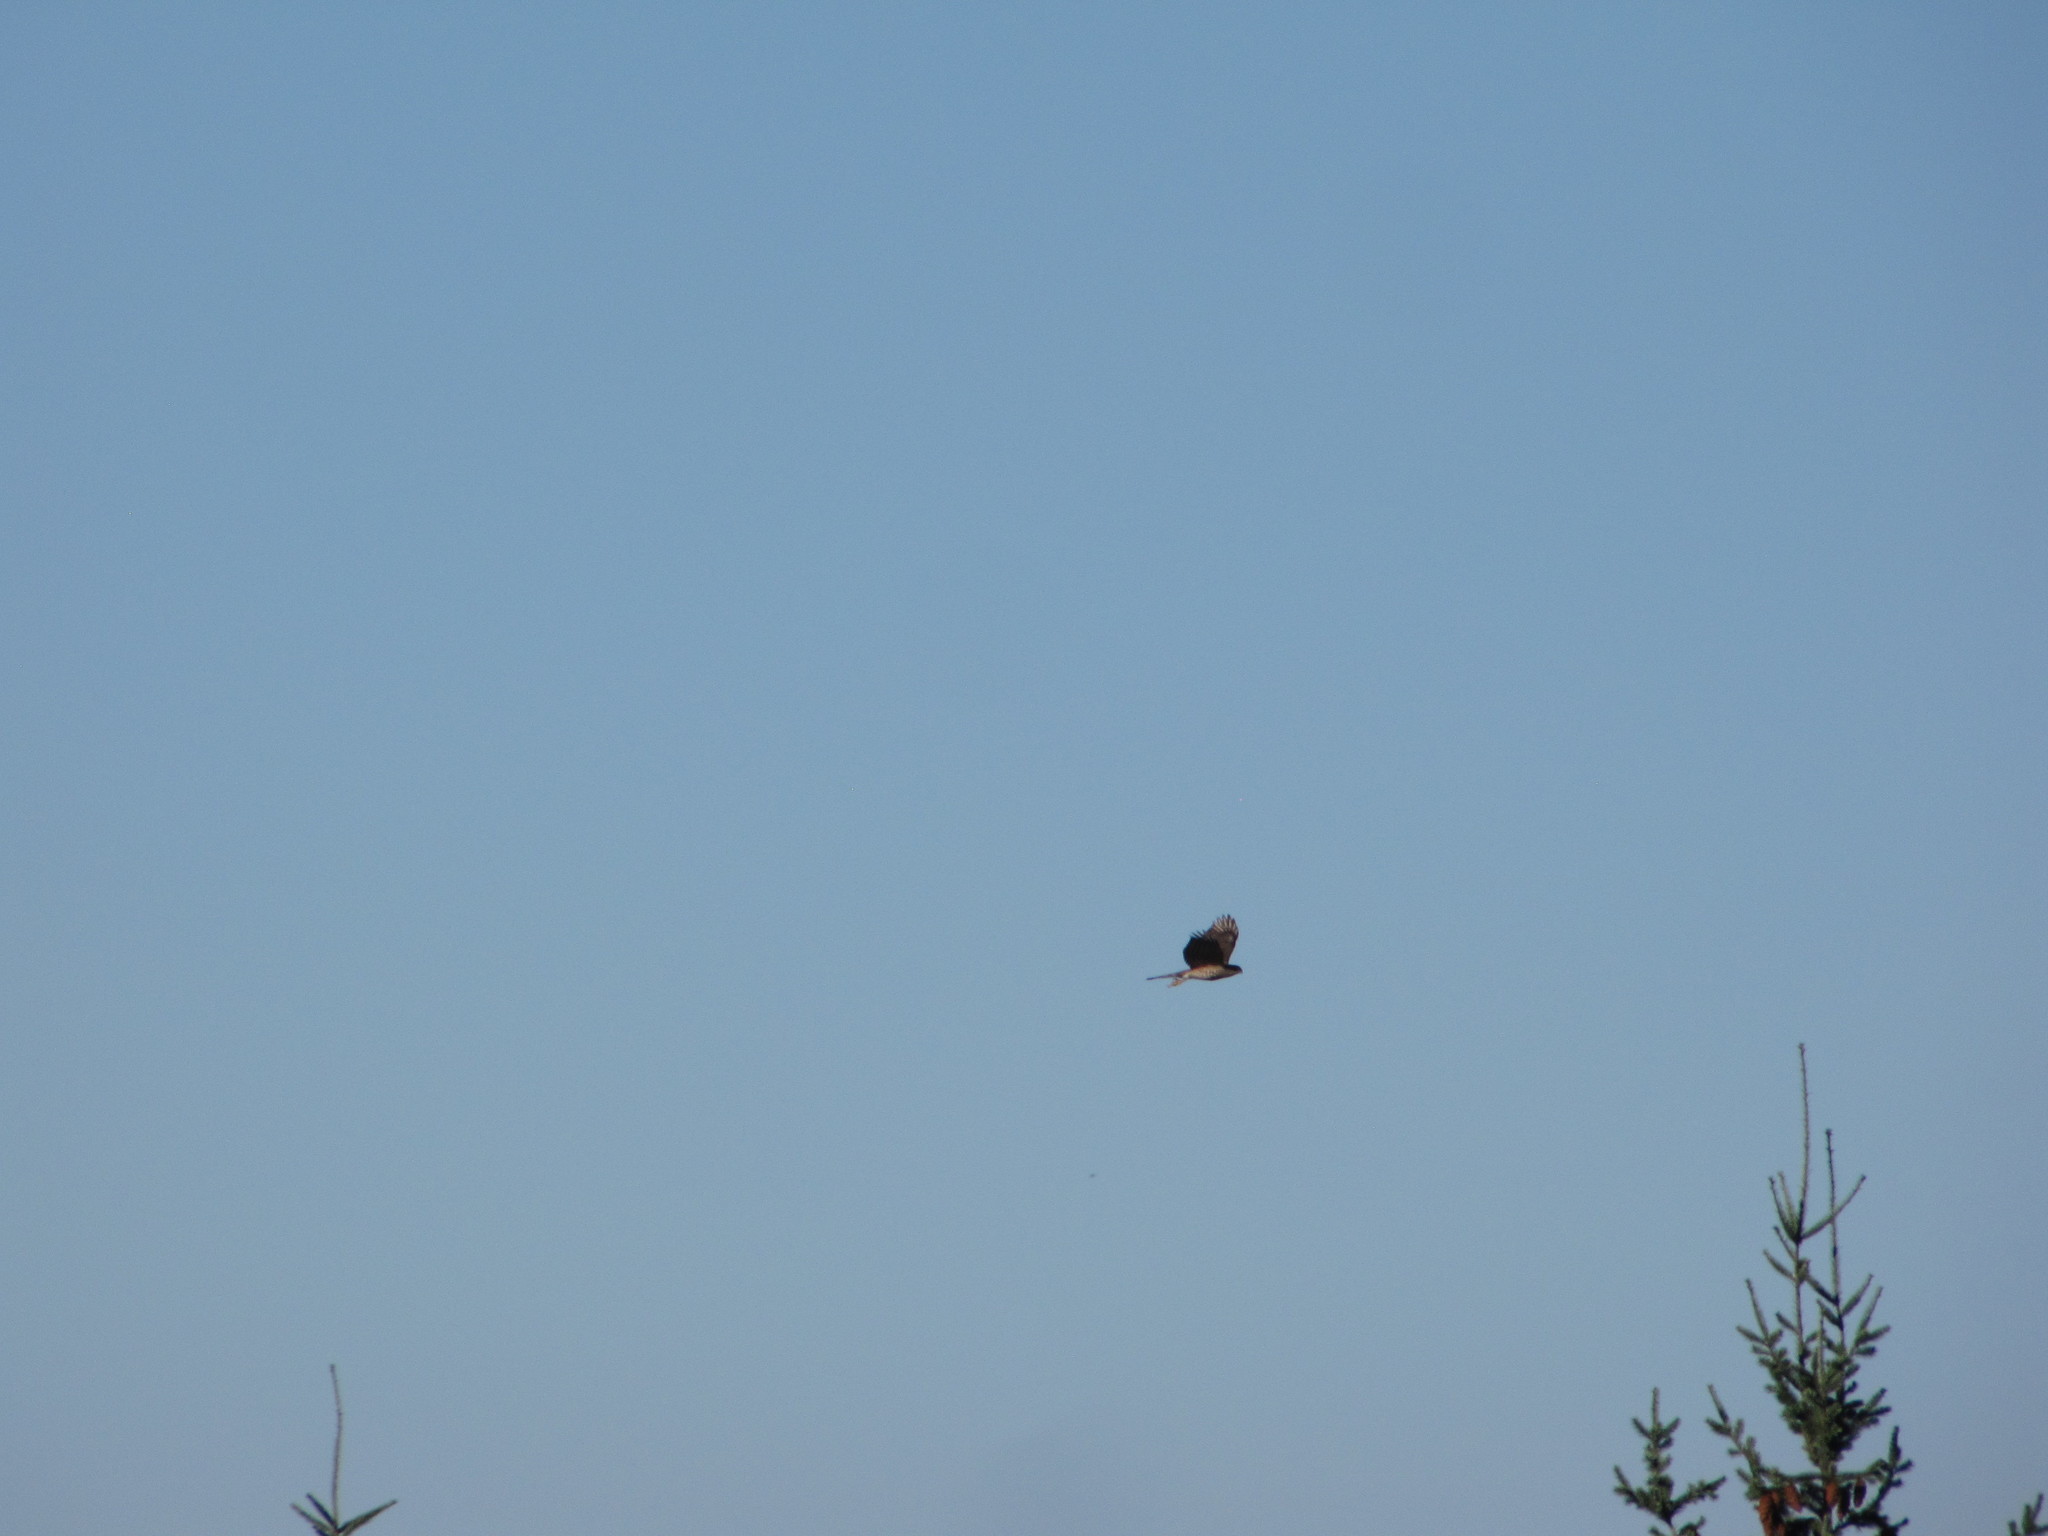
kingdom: Animalia
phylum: Chordata
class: Aves
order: Accipitriformes
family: Accipitridae
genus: Accipiter
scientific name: Accipiter striatus
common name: Sharp-shinned hawk
